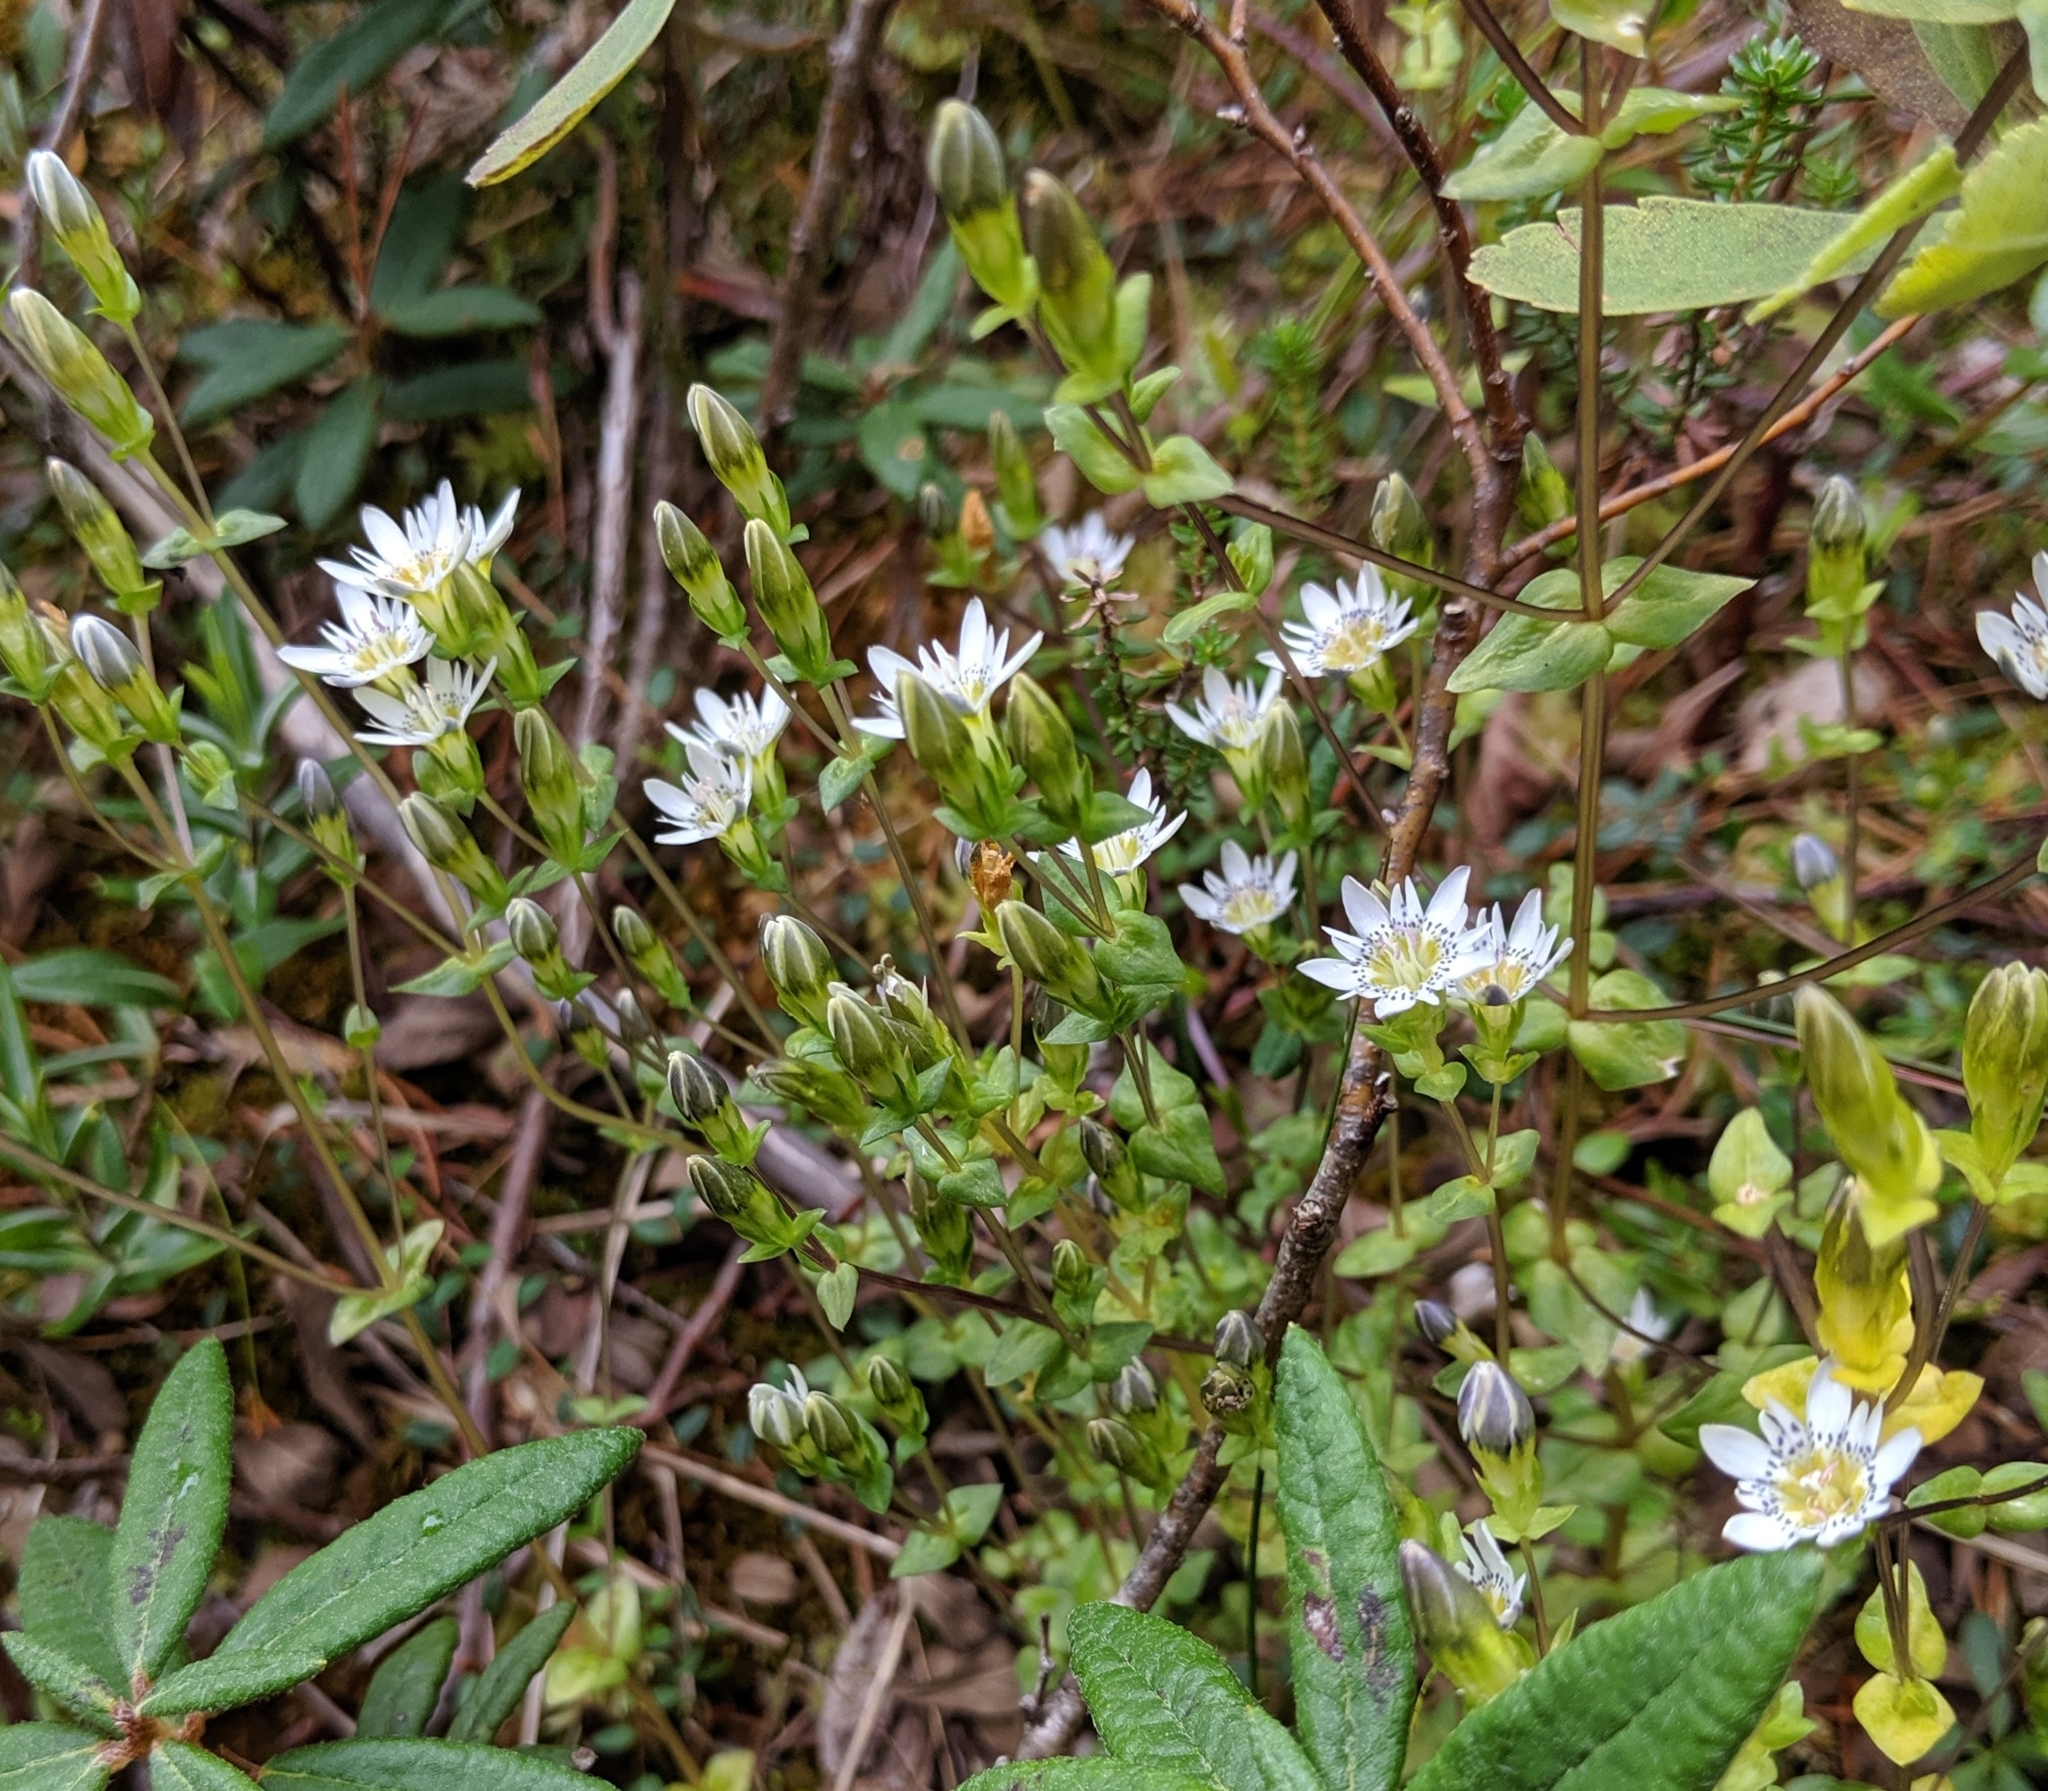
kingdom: Plantae
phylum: Tracheophyta
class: Magnoliopsida
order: Gentianales
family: Gentianaceae
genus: Gentiana
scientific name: Gentiana douglasiana
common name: Swamp gentian
